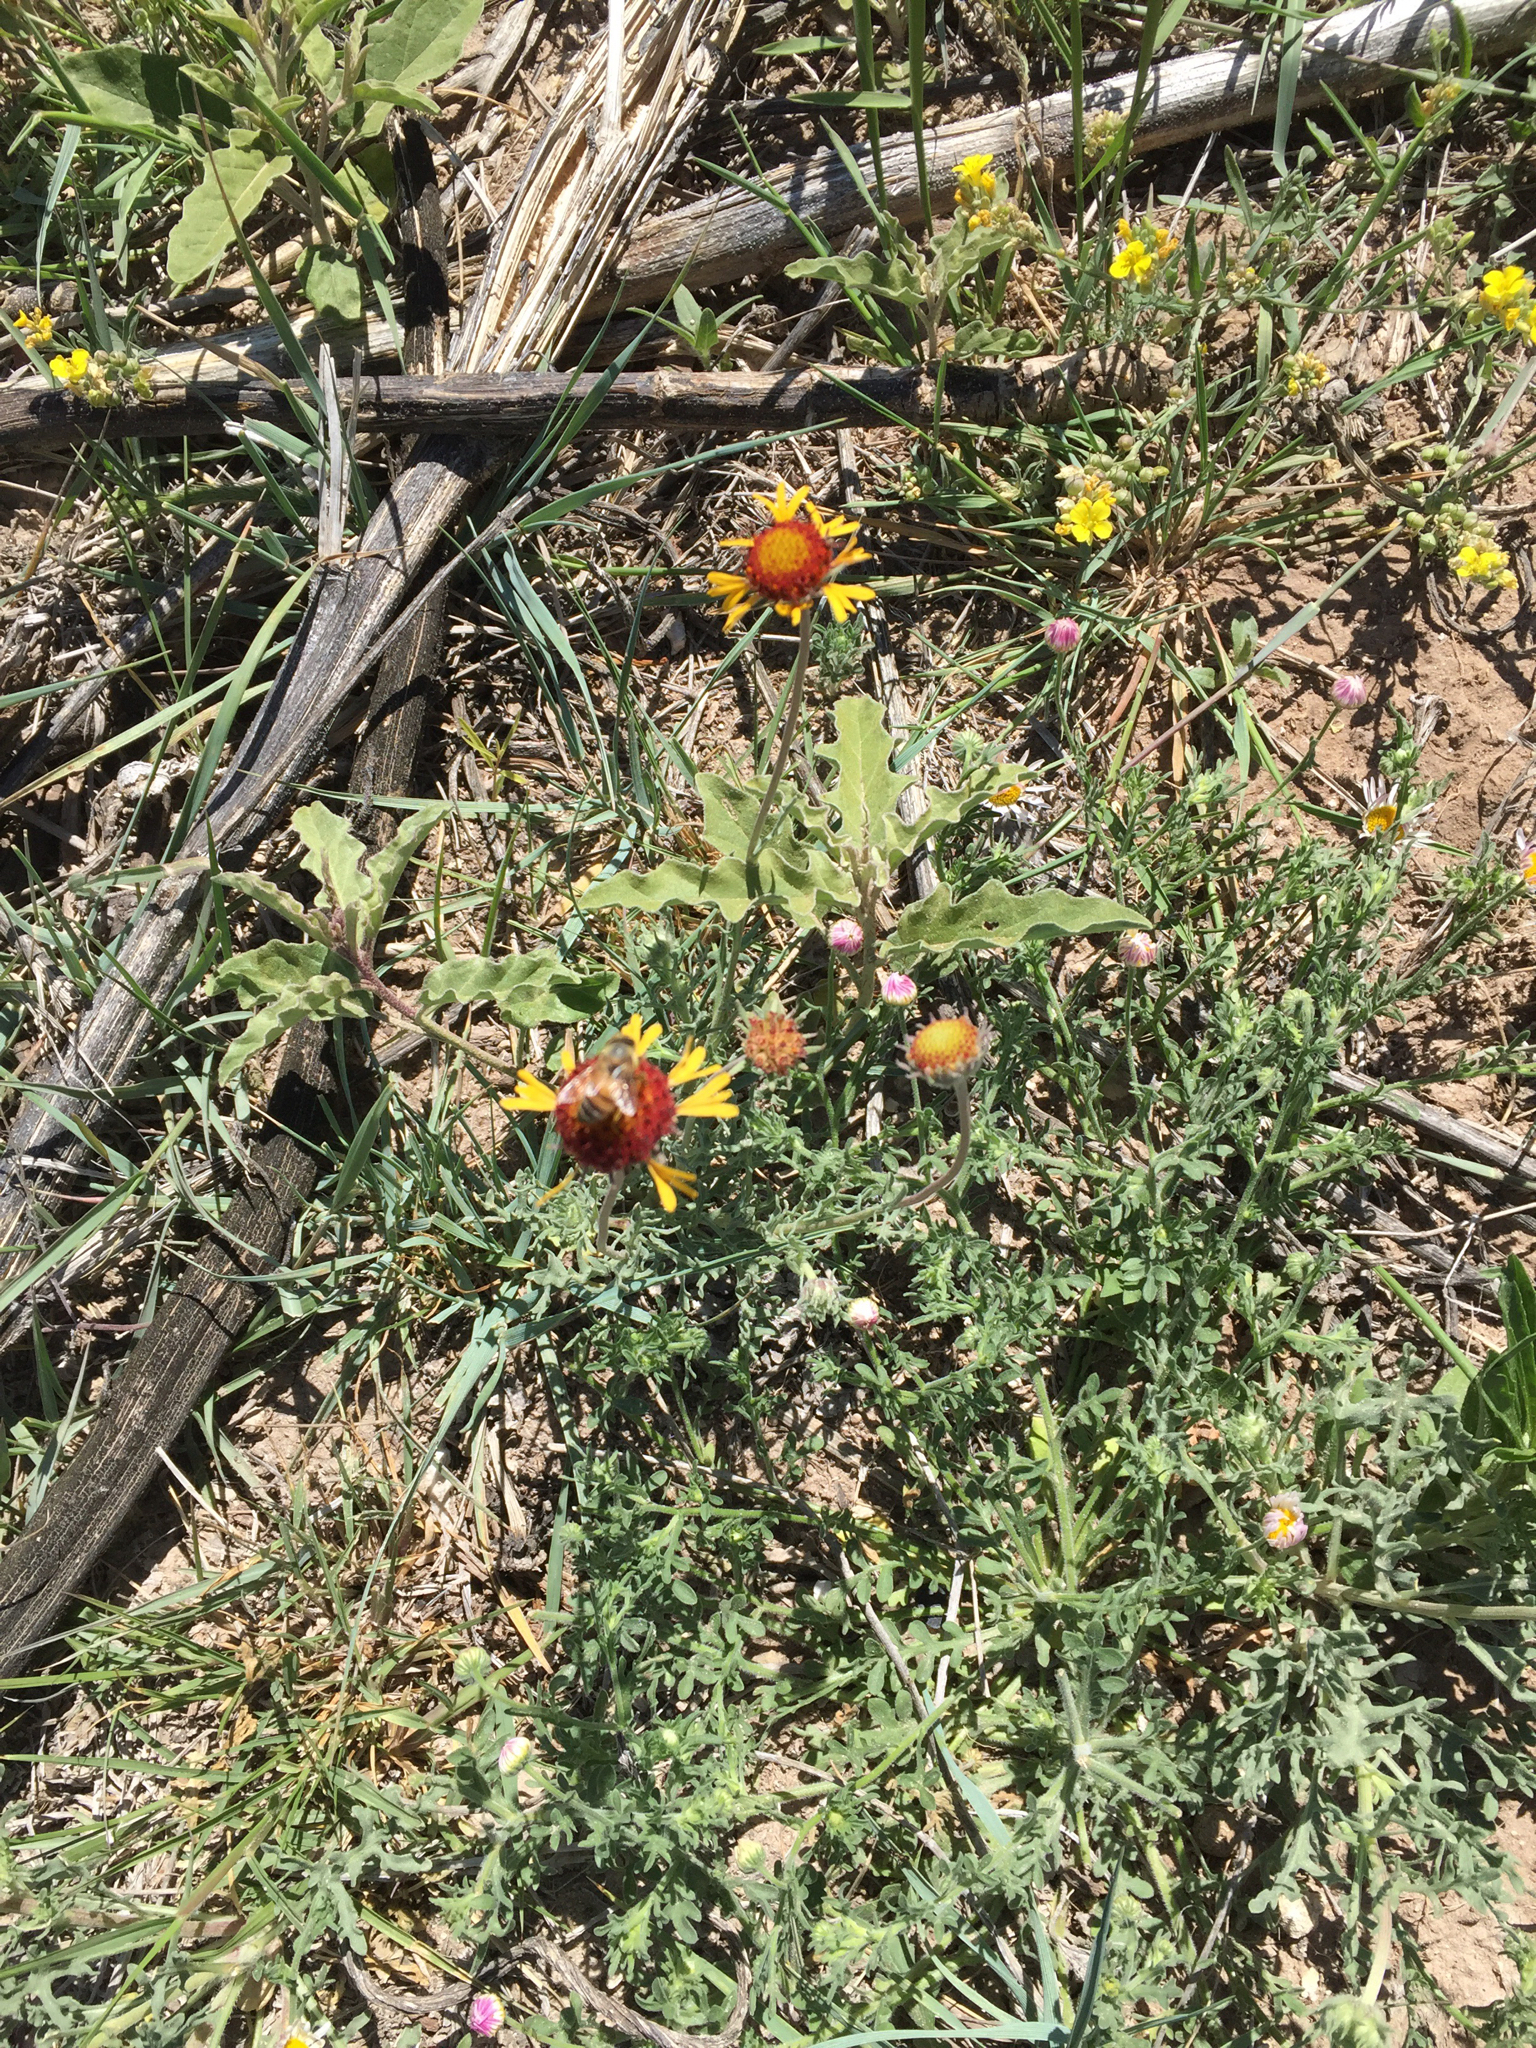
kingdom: Animalia
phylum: Arthropoda
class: Insecta
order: Hymenoptera
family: Apidae
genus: Apis
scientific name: Apis mellifera
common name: Honey bee
